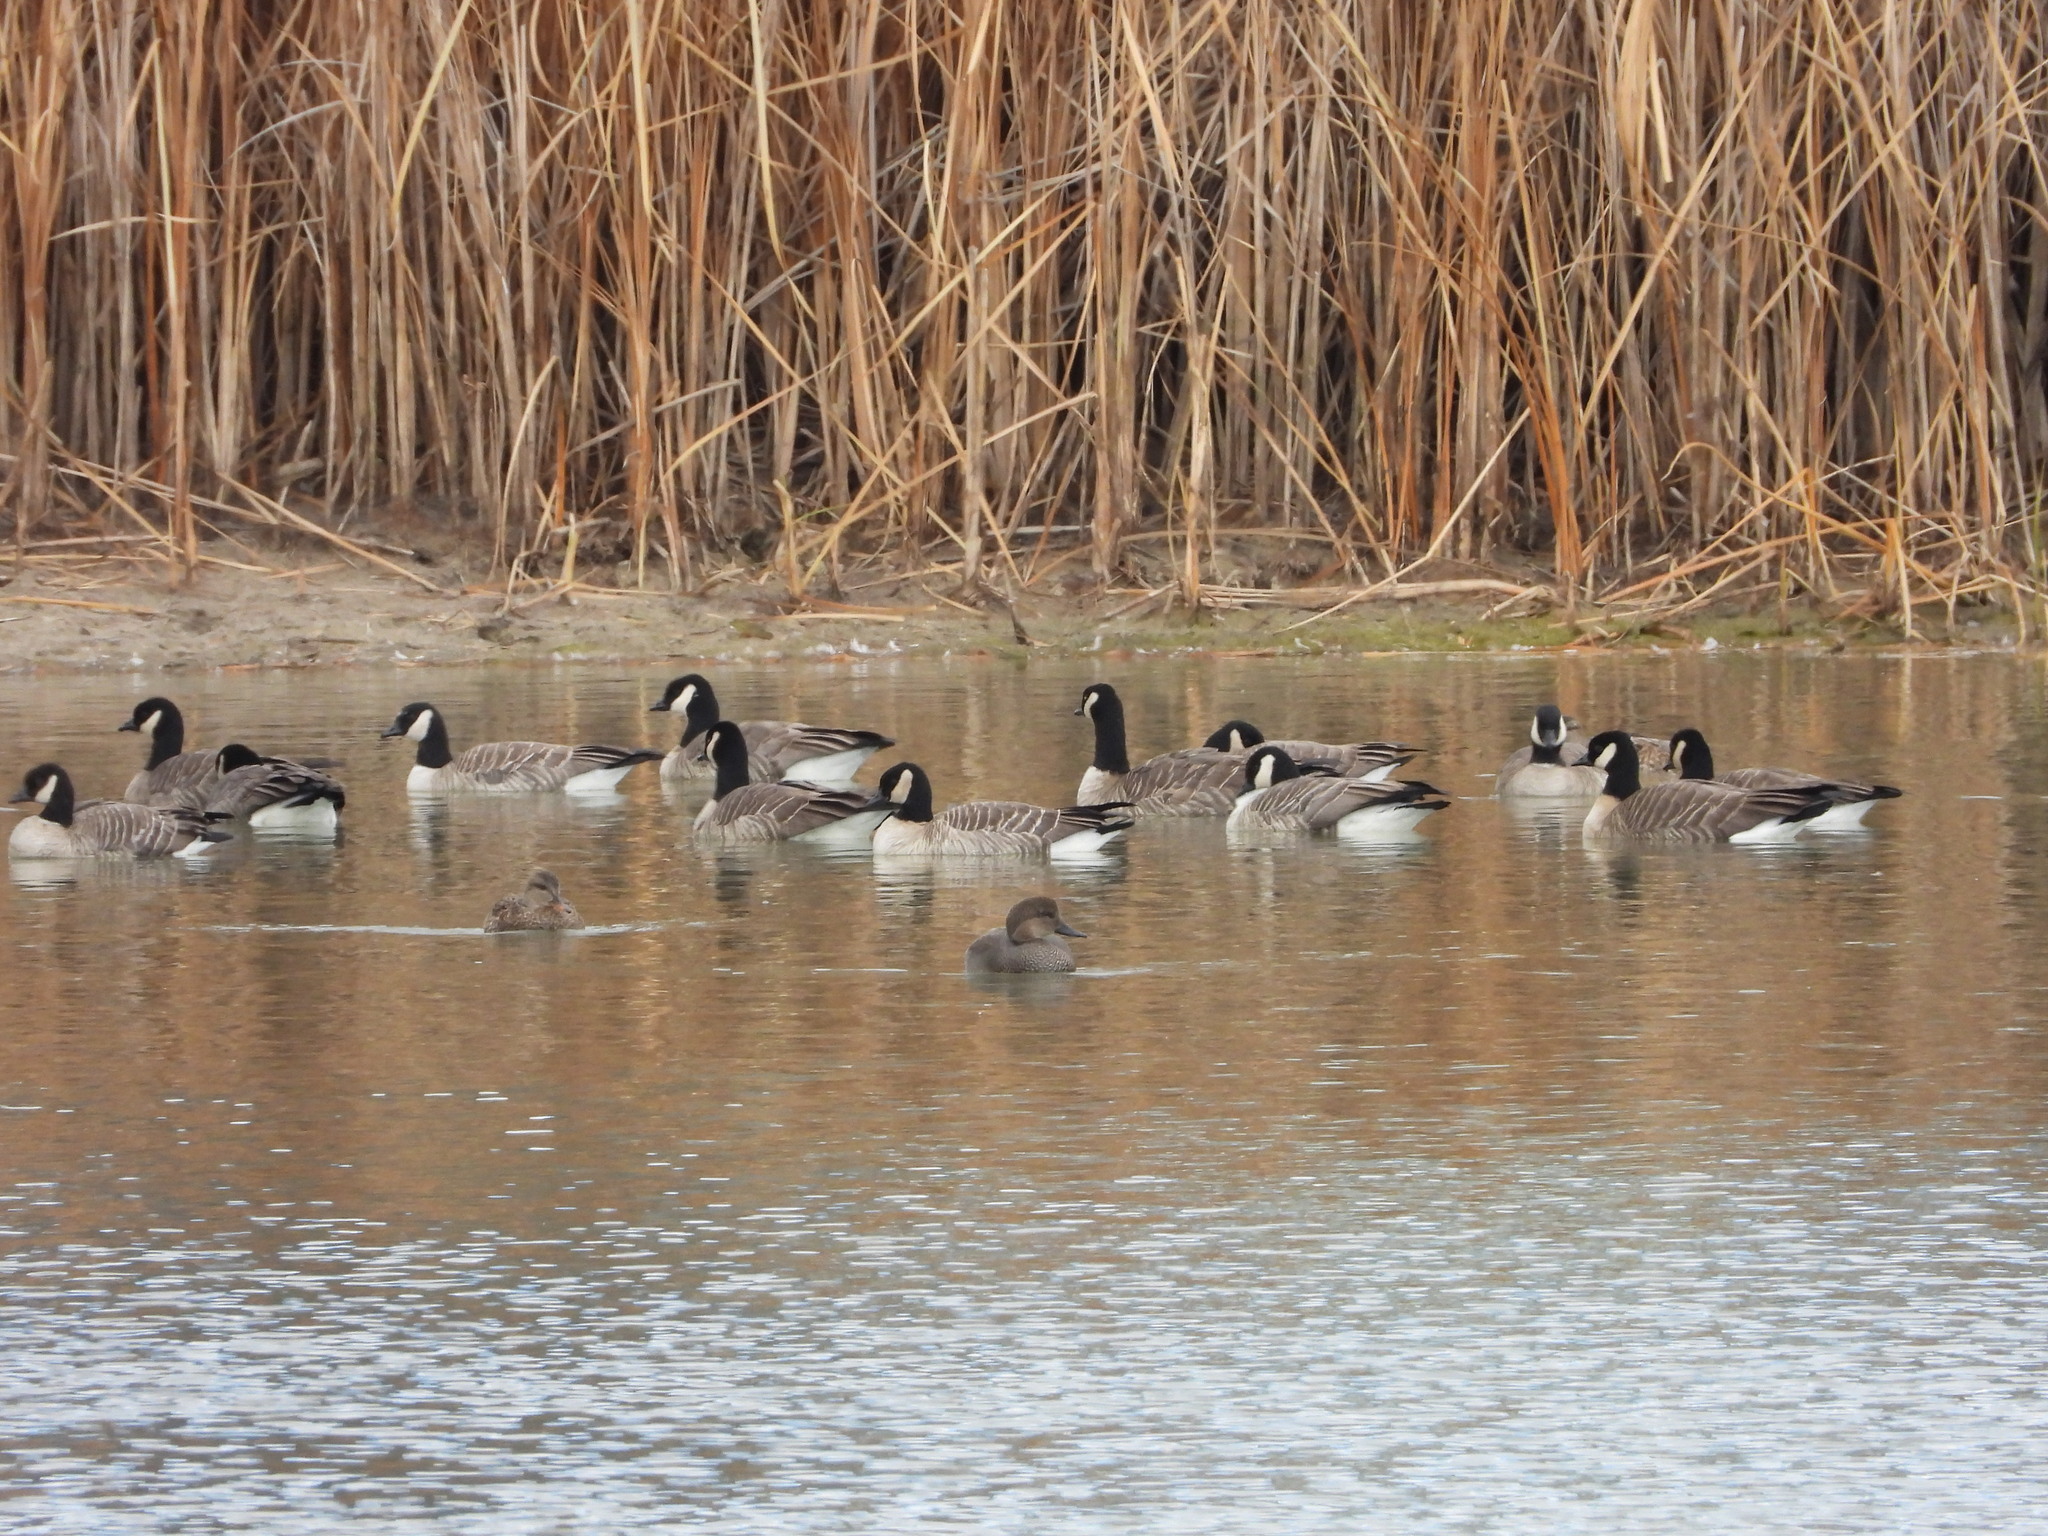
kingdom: Animalia
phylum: Chordata
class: Aves
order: Anseriformes
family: Anatidae
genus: Branta
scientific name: Branta hutchinsii
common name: Cackling goose
